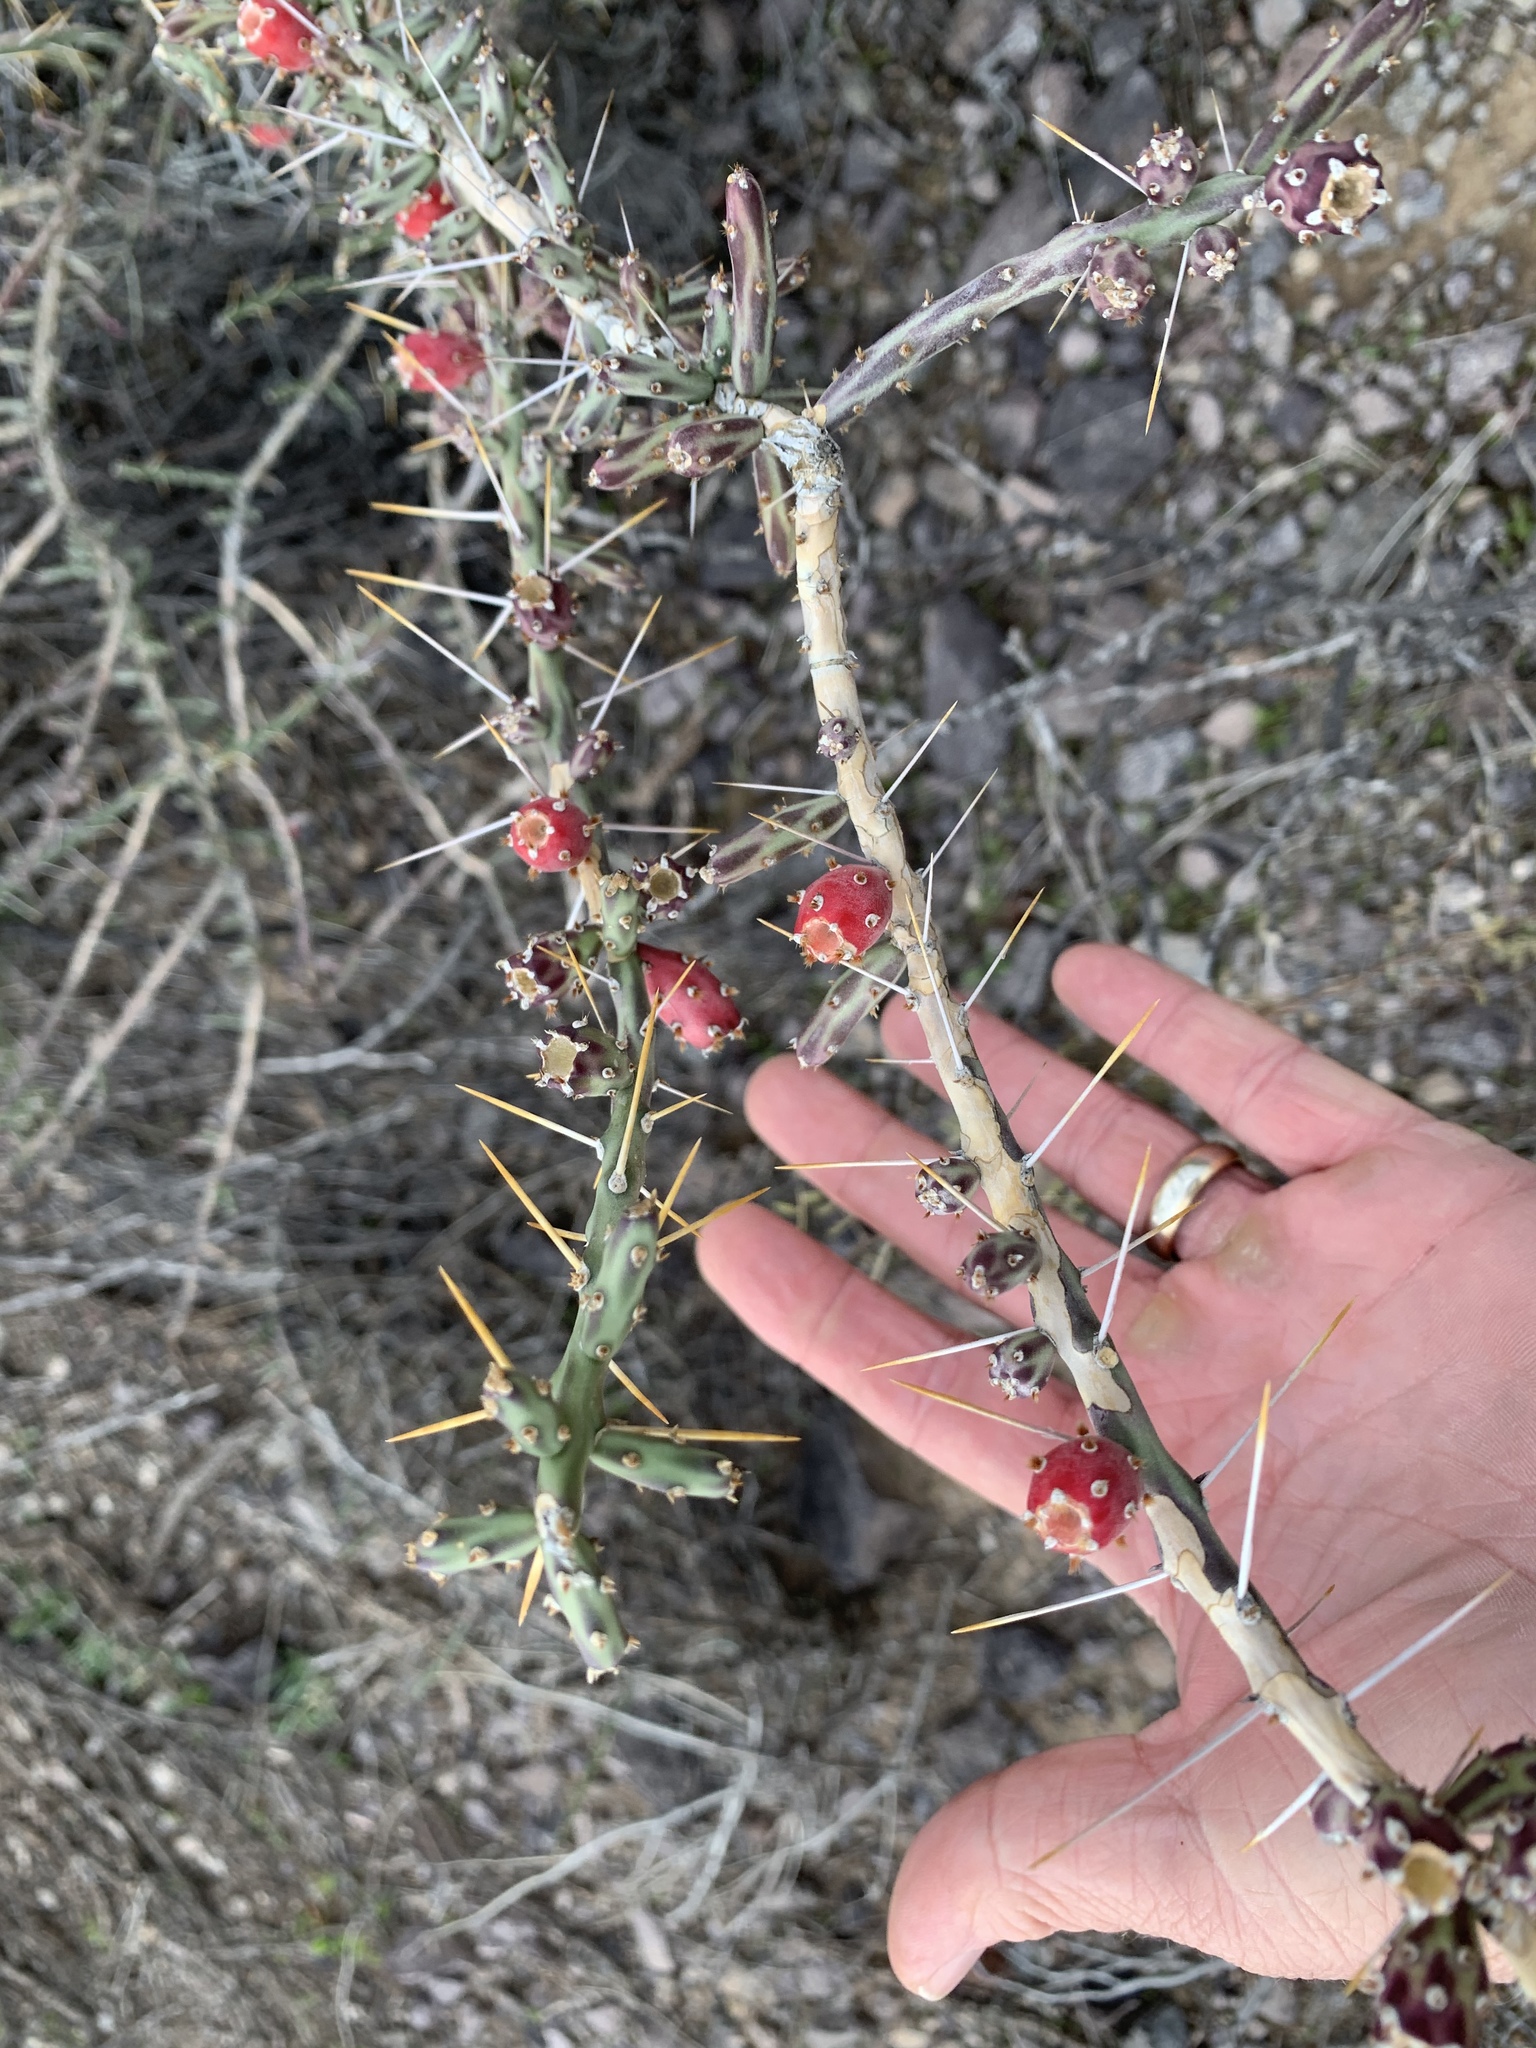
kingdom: Plantae
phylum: Tracheophyta
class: Magnoliopsida
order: Caryophyllales
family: Cactaceae
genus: Cylindropuntia
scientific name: Cylindropuntia leptocaulis
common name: Christmas cactus
